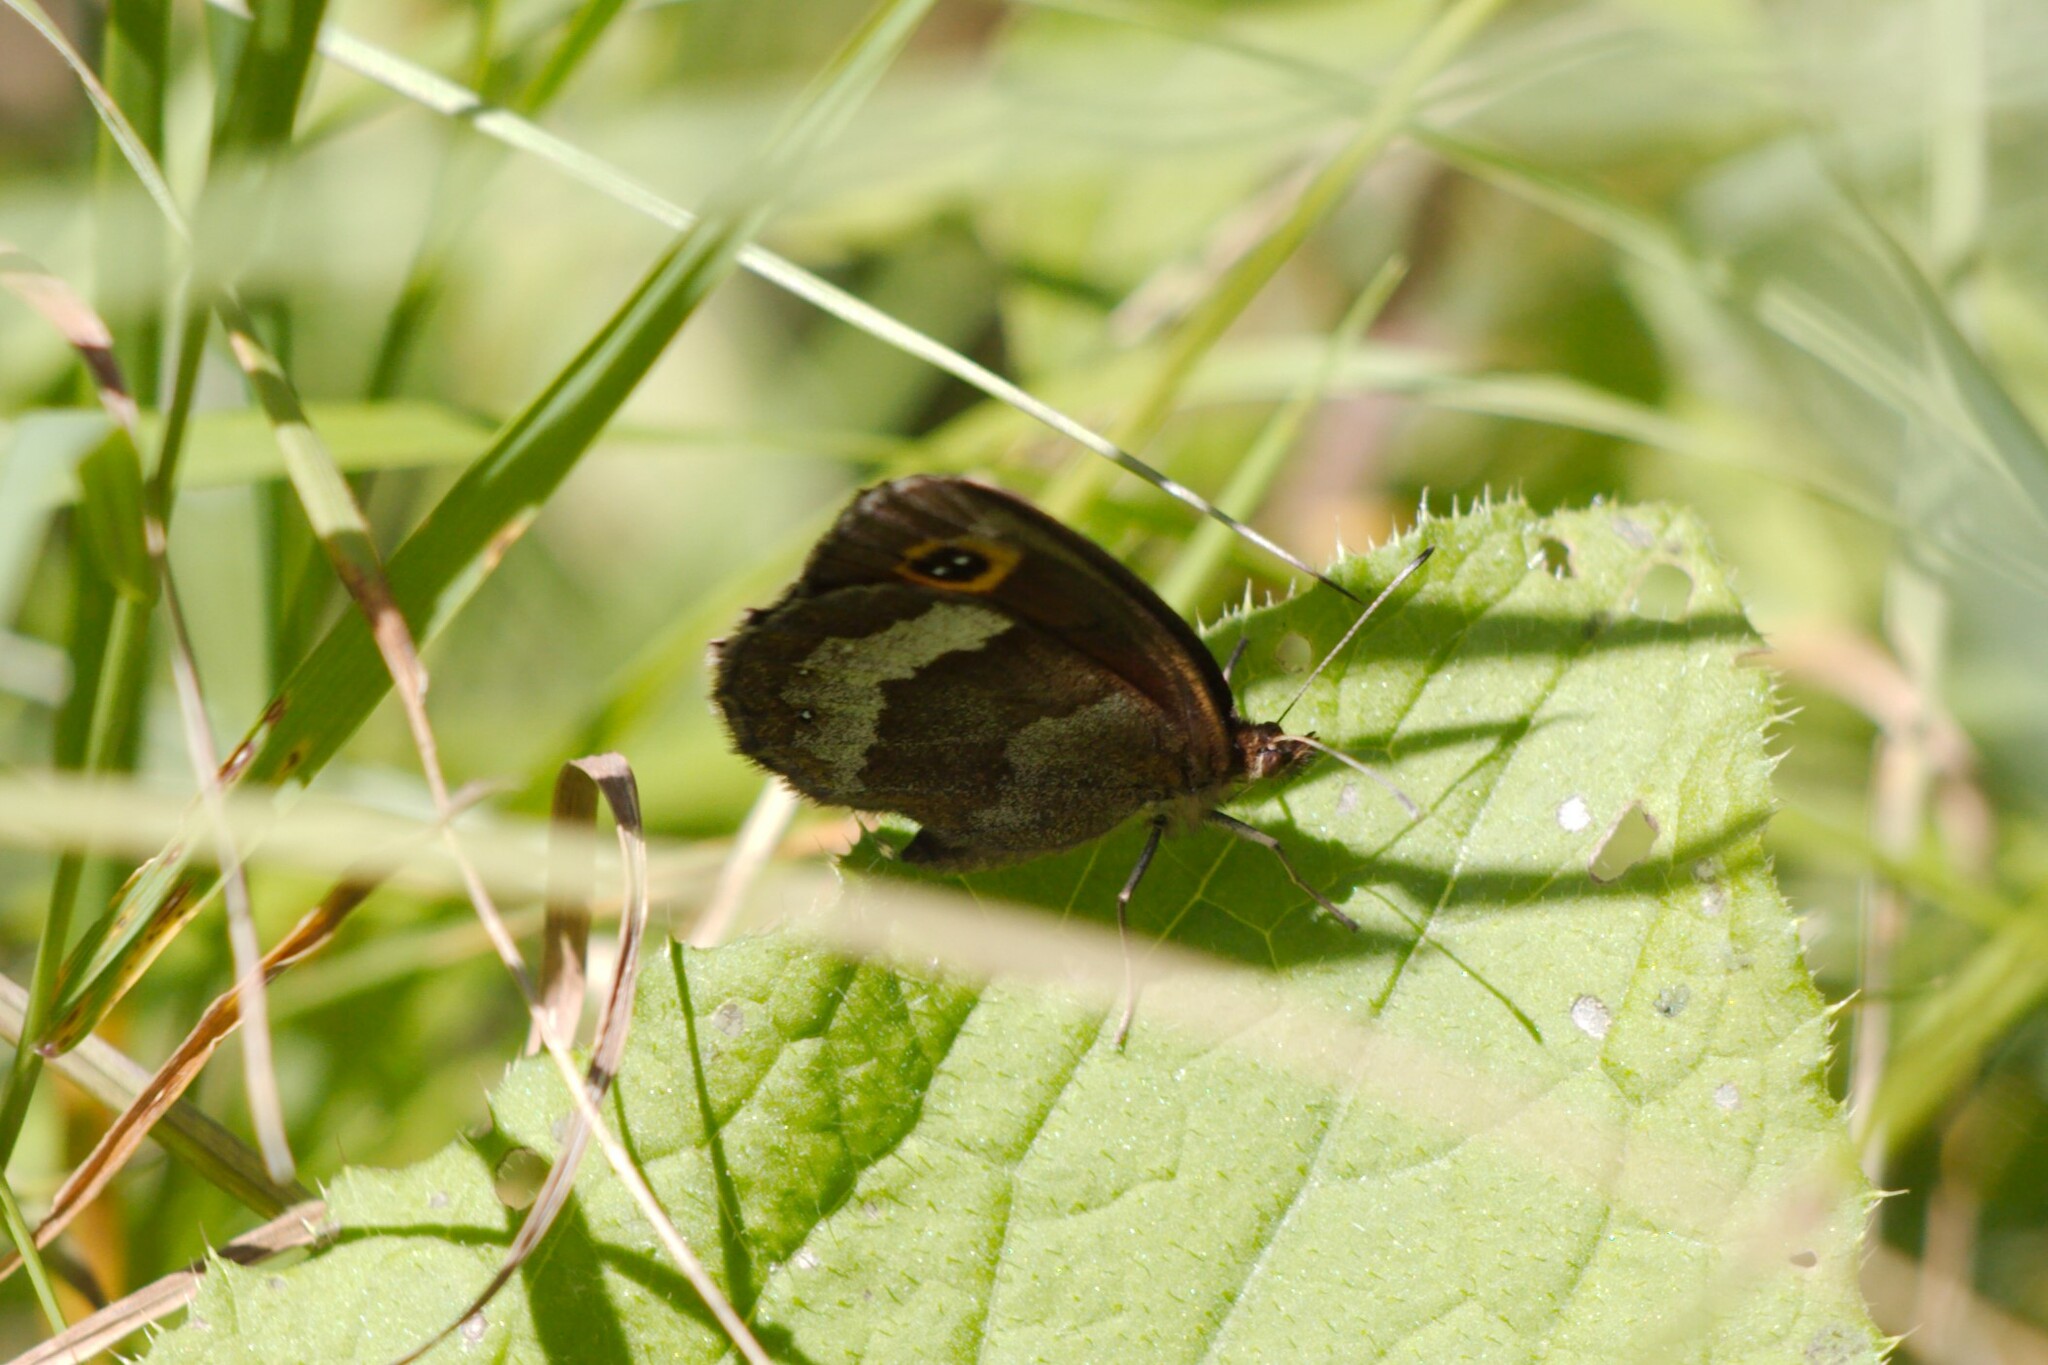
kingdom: Animalia
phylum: Arthropoda
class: Insecta
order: Lepidoptera
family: Nymphalidae
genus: Erebia
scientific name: Erebia aethiops
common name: Scotch argus
